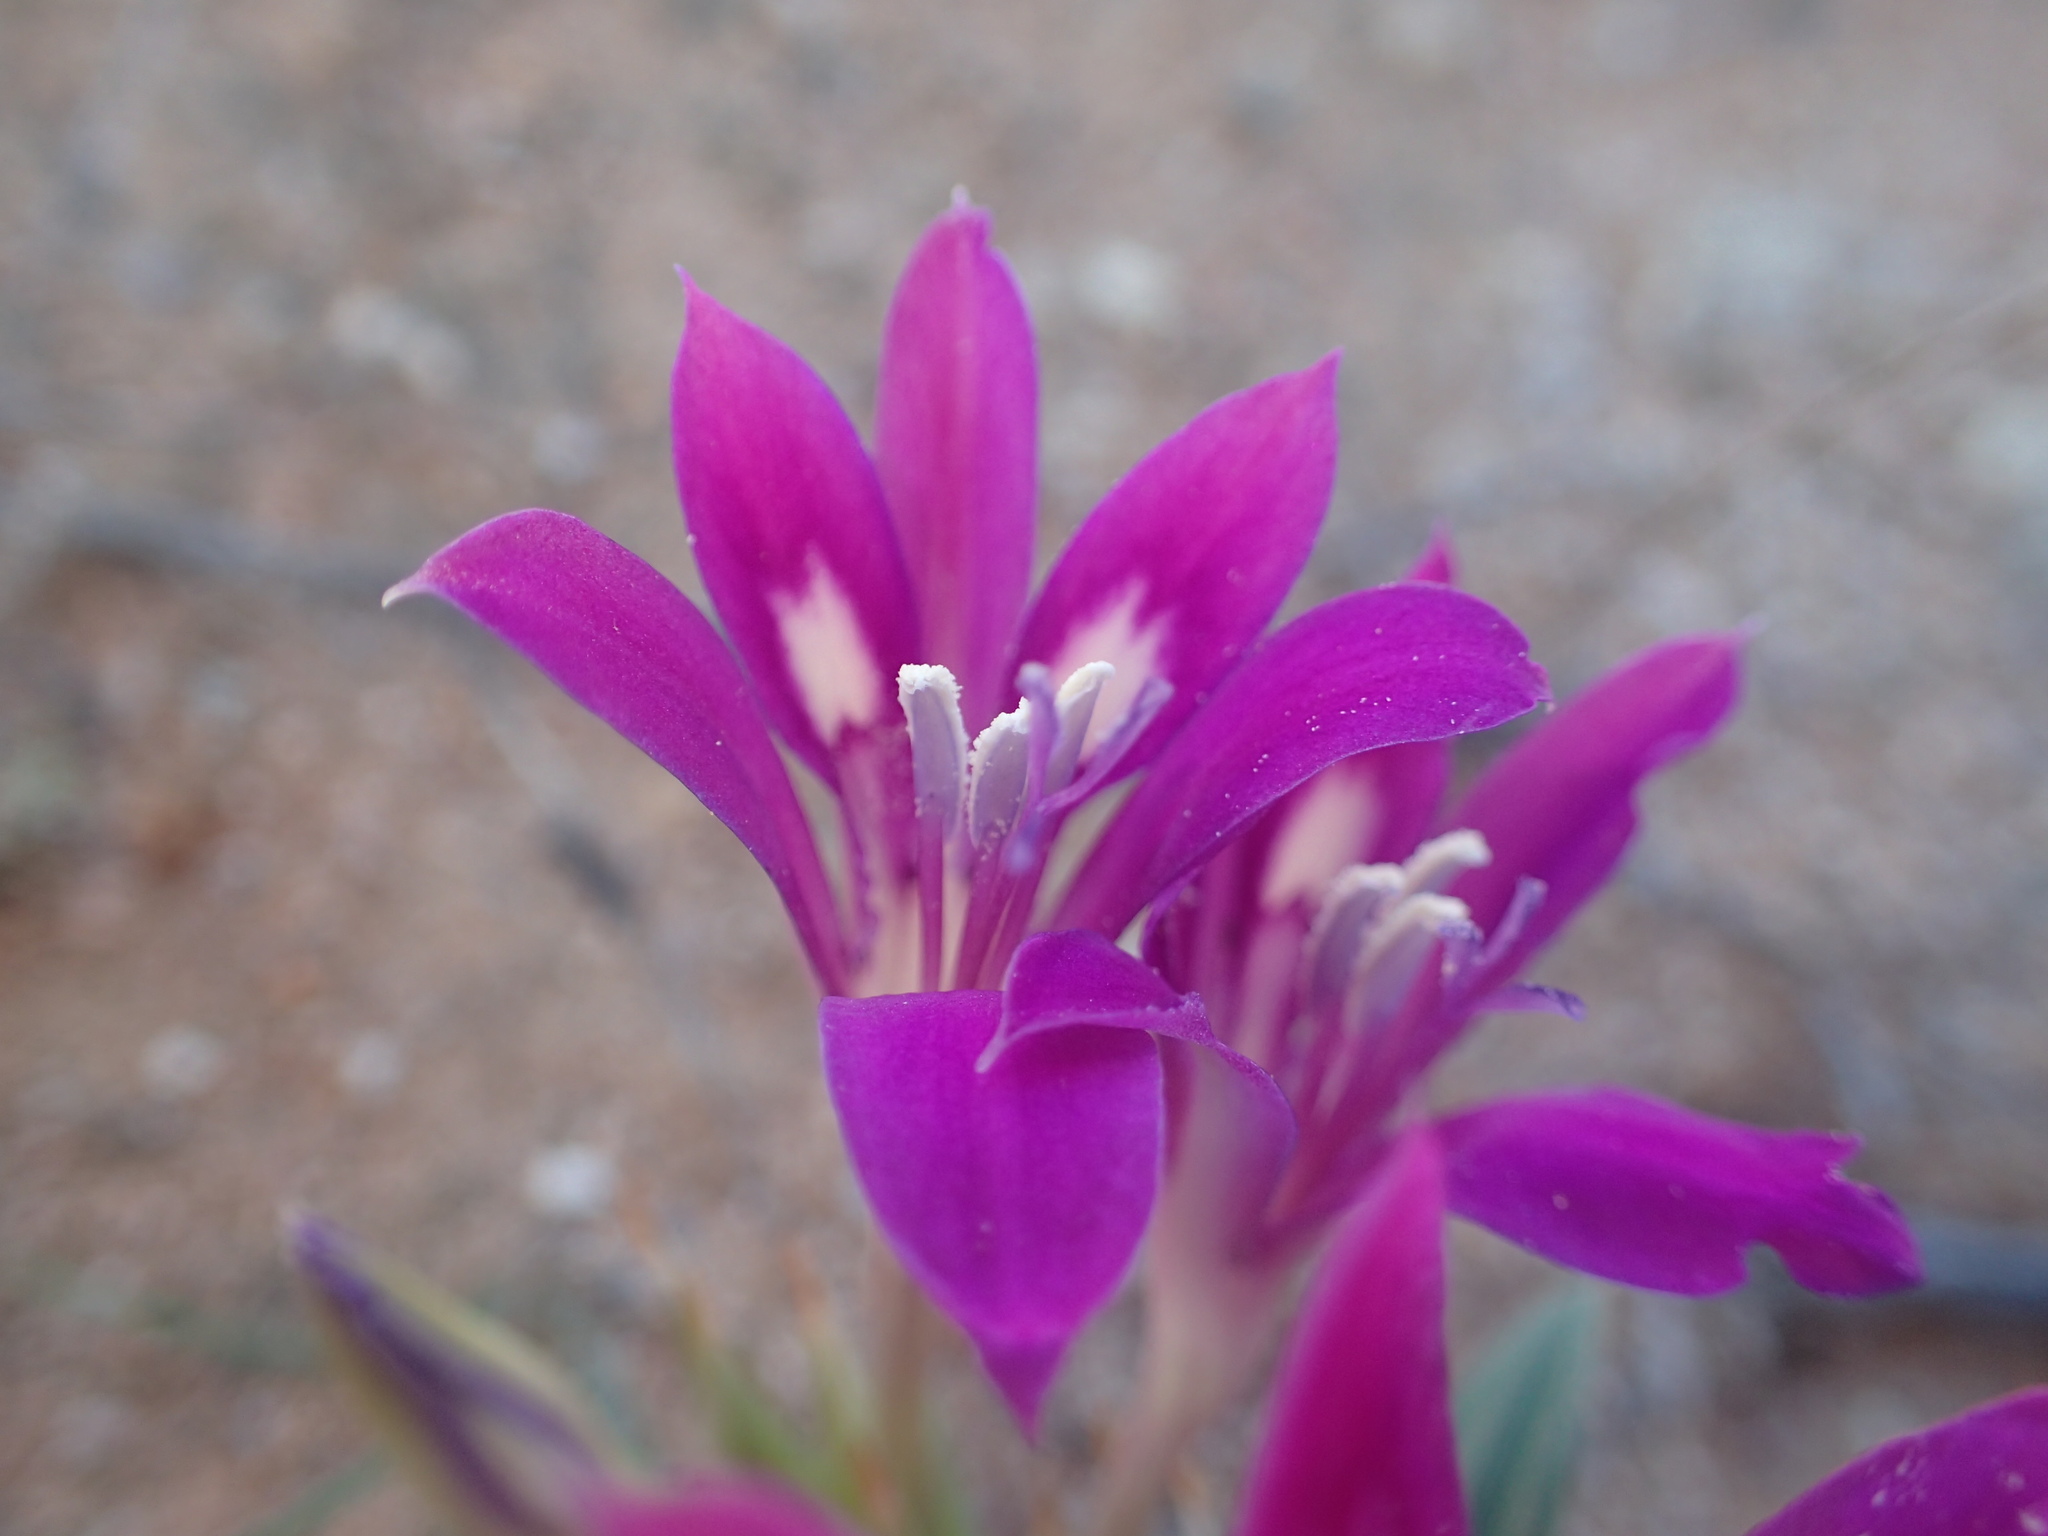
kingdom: Plantae
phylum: Tracheophyta
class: Liliopsida
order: Asparagales
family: Iridaceae
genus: Babiana
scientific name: Babiana curviscapa
